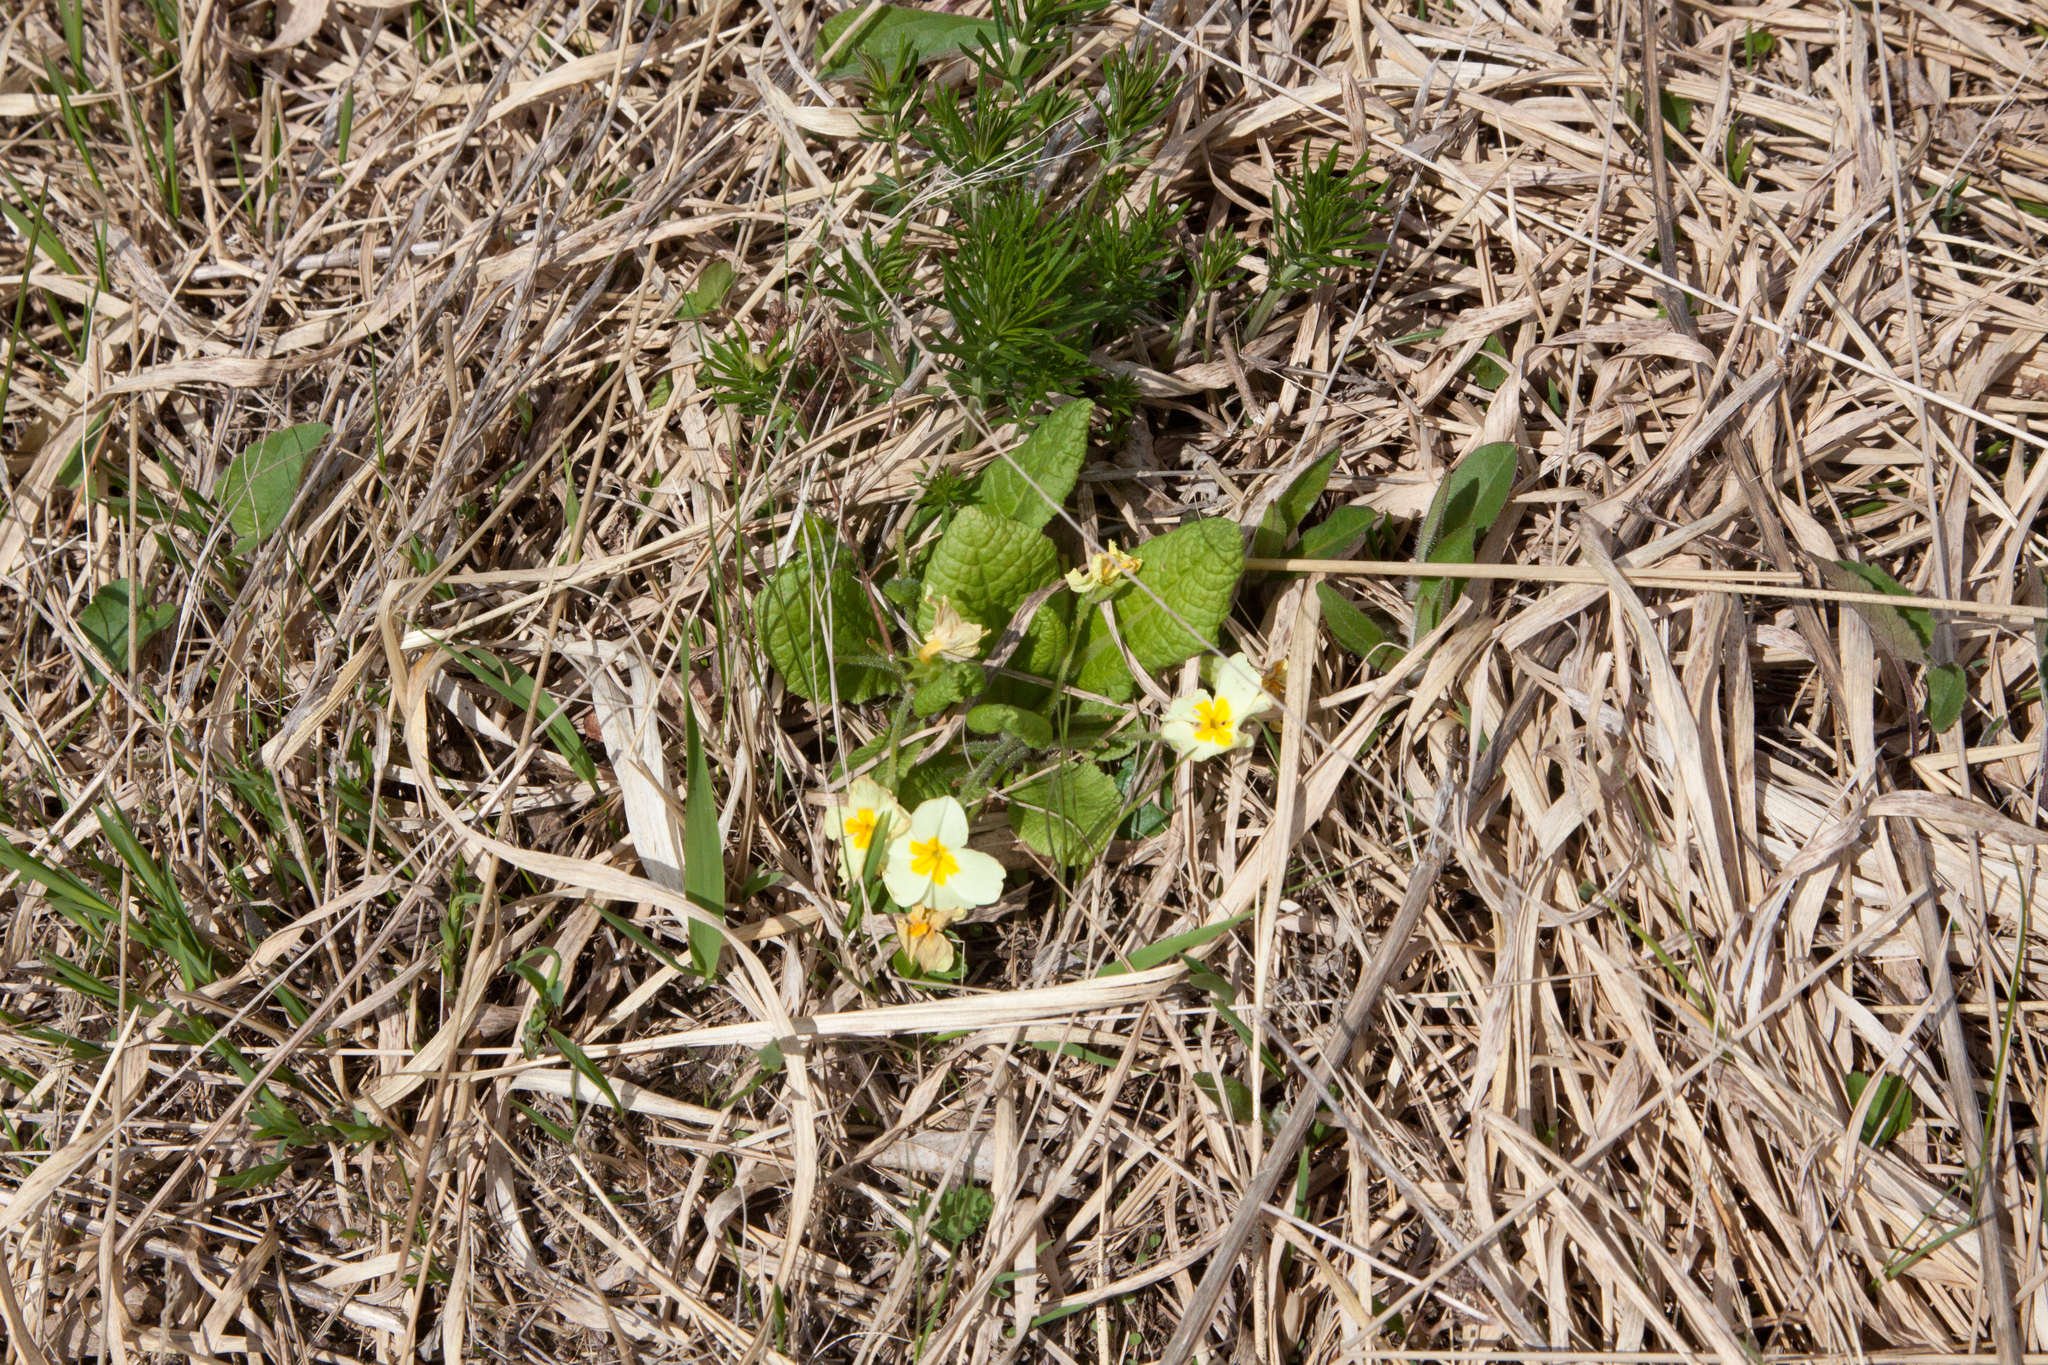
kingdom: Plantae
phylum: Tracheophyta
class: Magnoliopsida
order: Ericales
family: Primulaceae
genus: Primula
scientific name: Primula vulgaris
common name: Primrose
